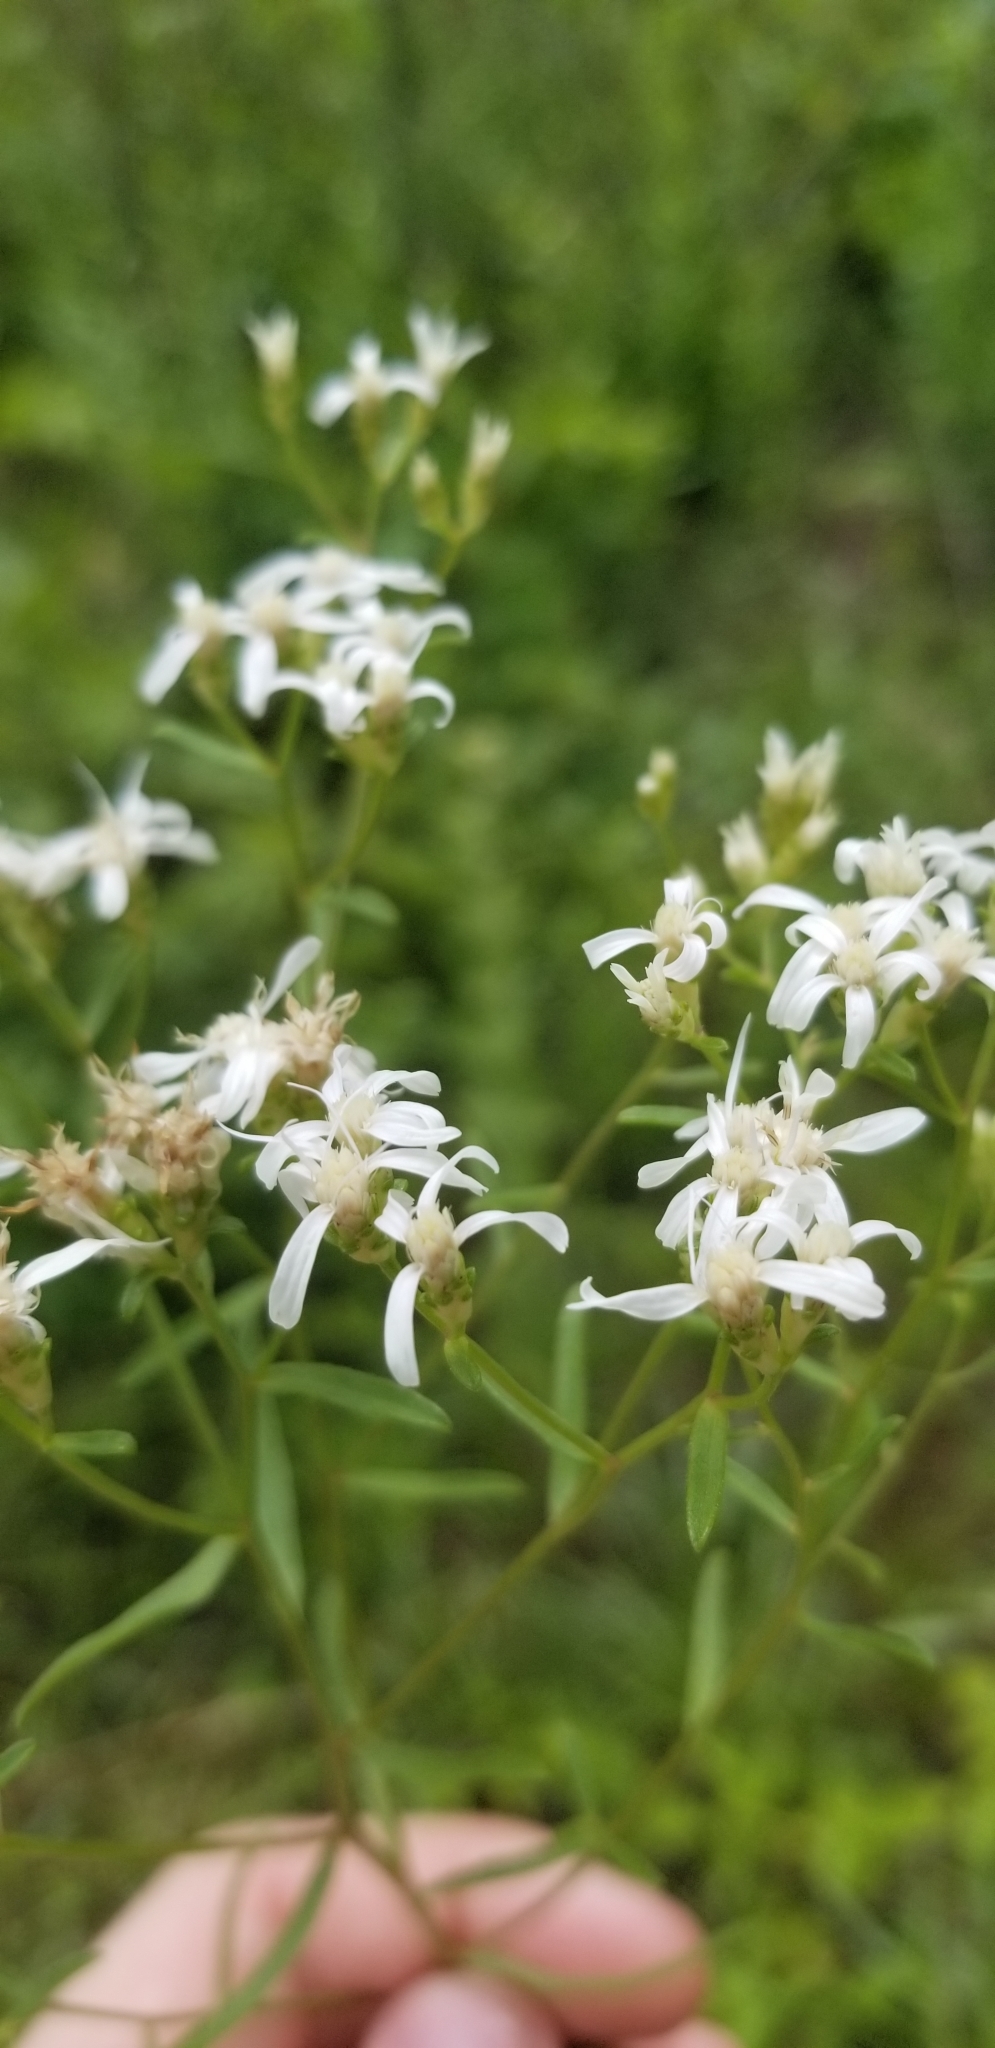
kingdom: Plantae
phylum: Tracheophyta
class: Magnoliopsida
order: Asterales
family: Asteraceae
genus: Sericocarpus
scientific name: Sericocarpus linifolius
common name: Narrow-leaf aster
